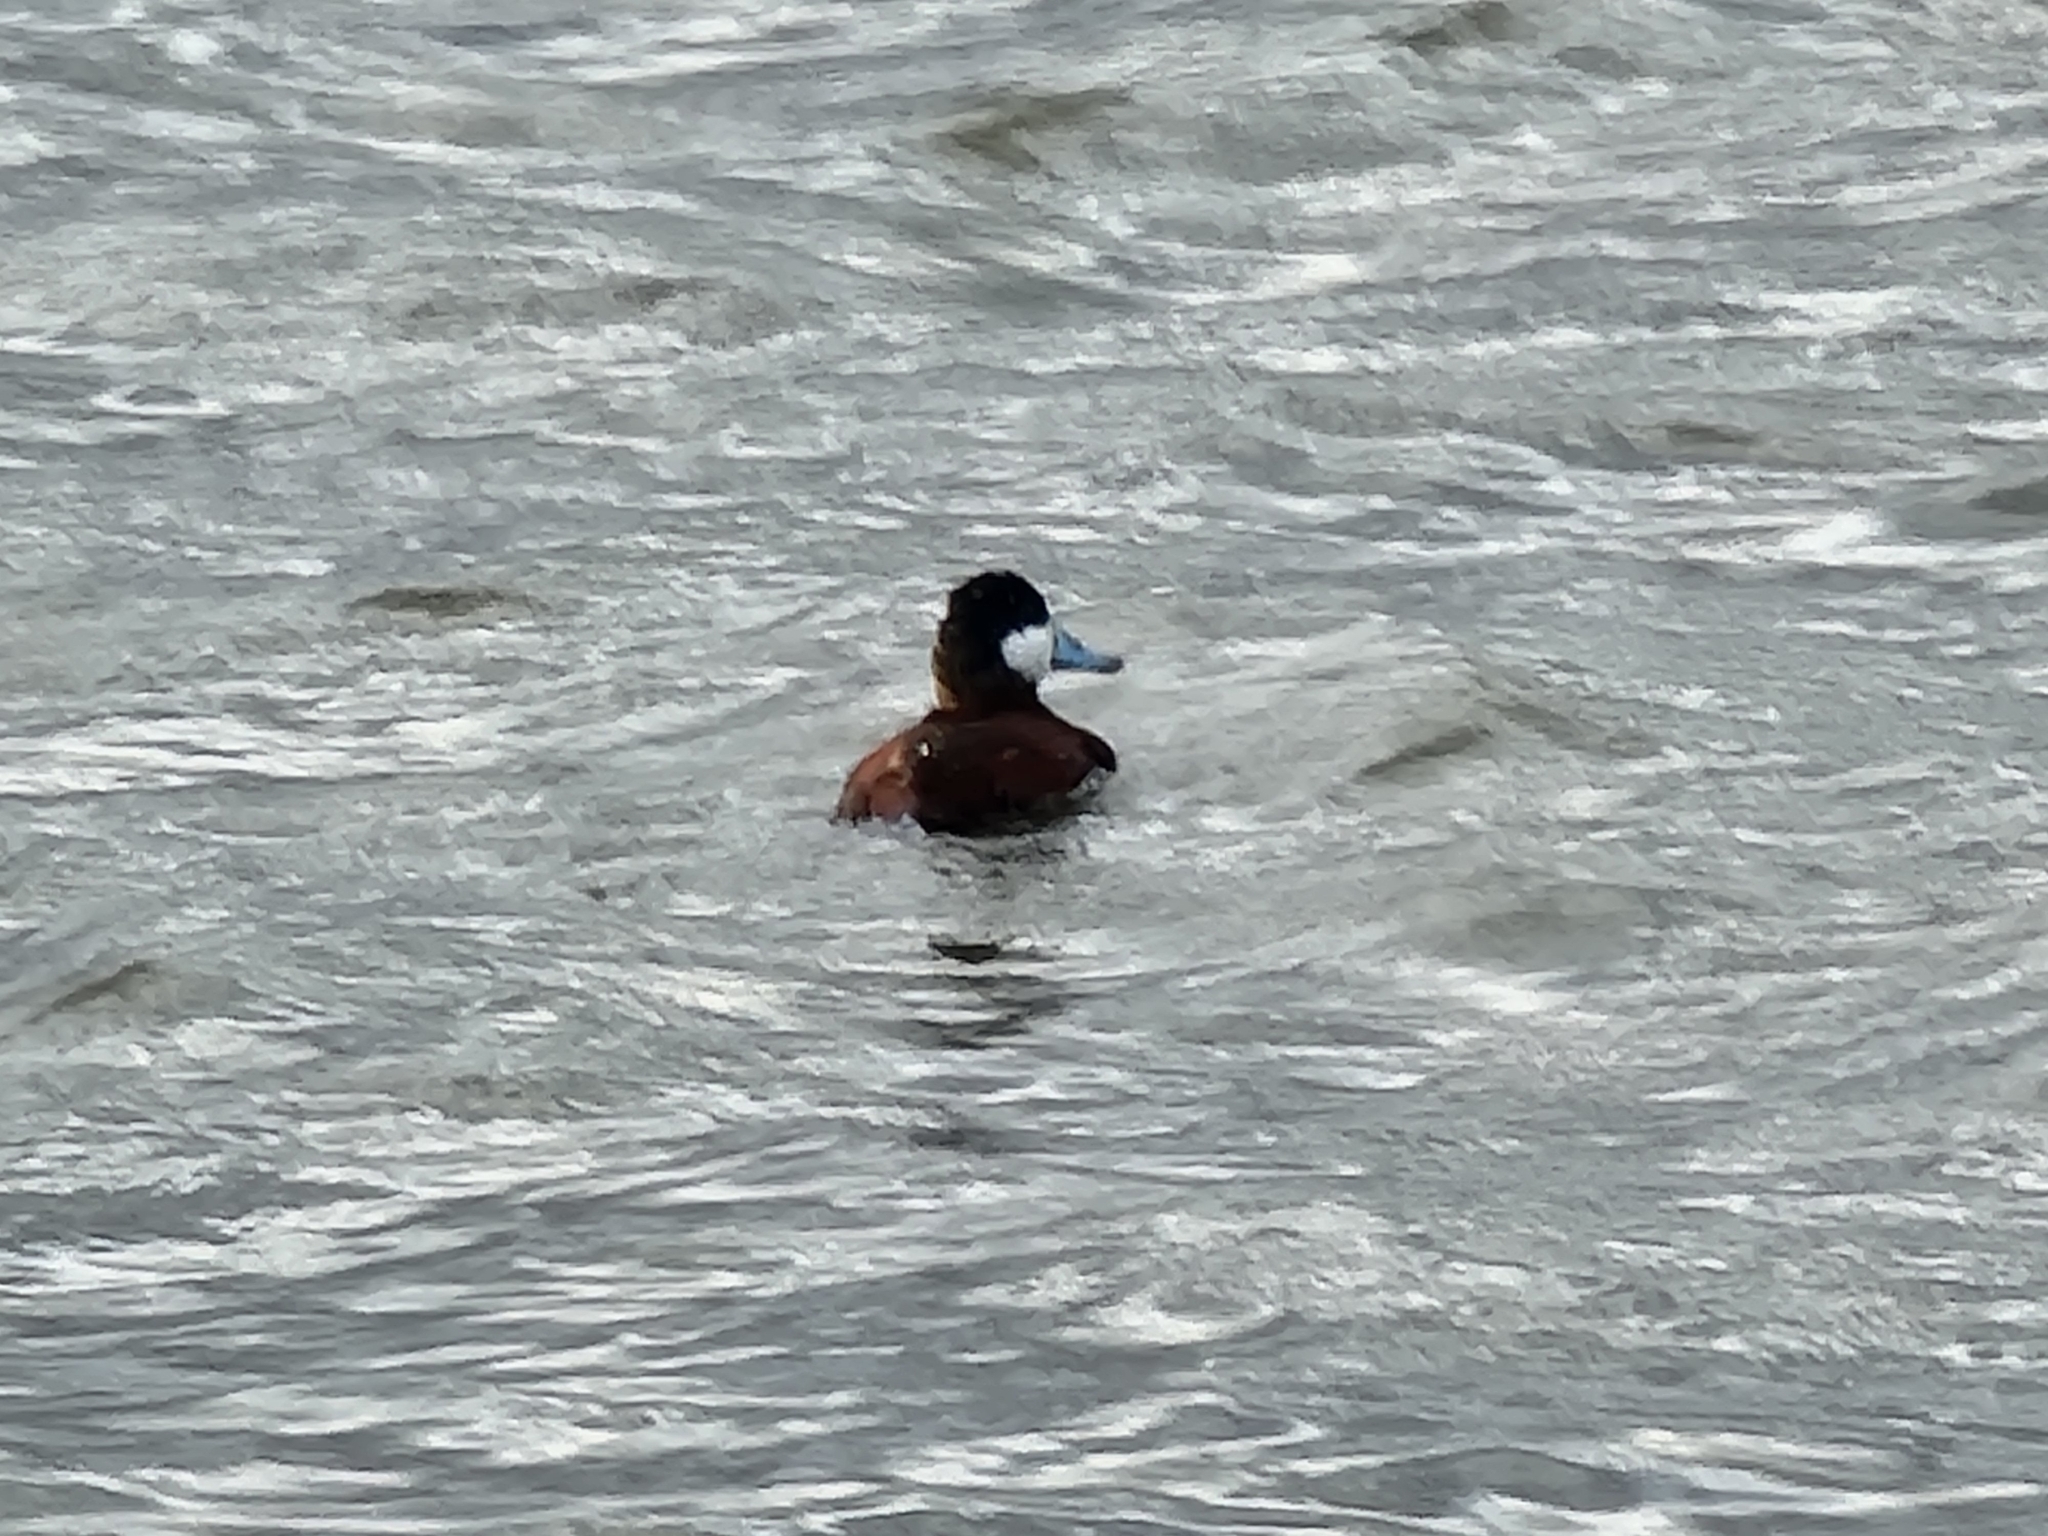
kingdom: Animalia
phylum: Chordata
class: Aves
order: Anseriformes
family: Anatidae
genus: Oxyura
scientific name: Oxyura jamaicensis
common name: Ruddy duck
